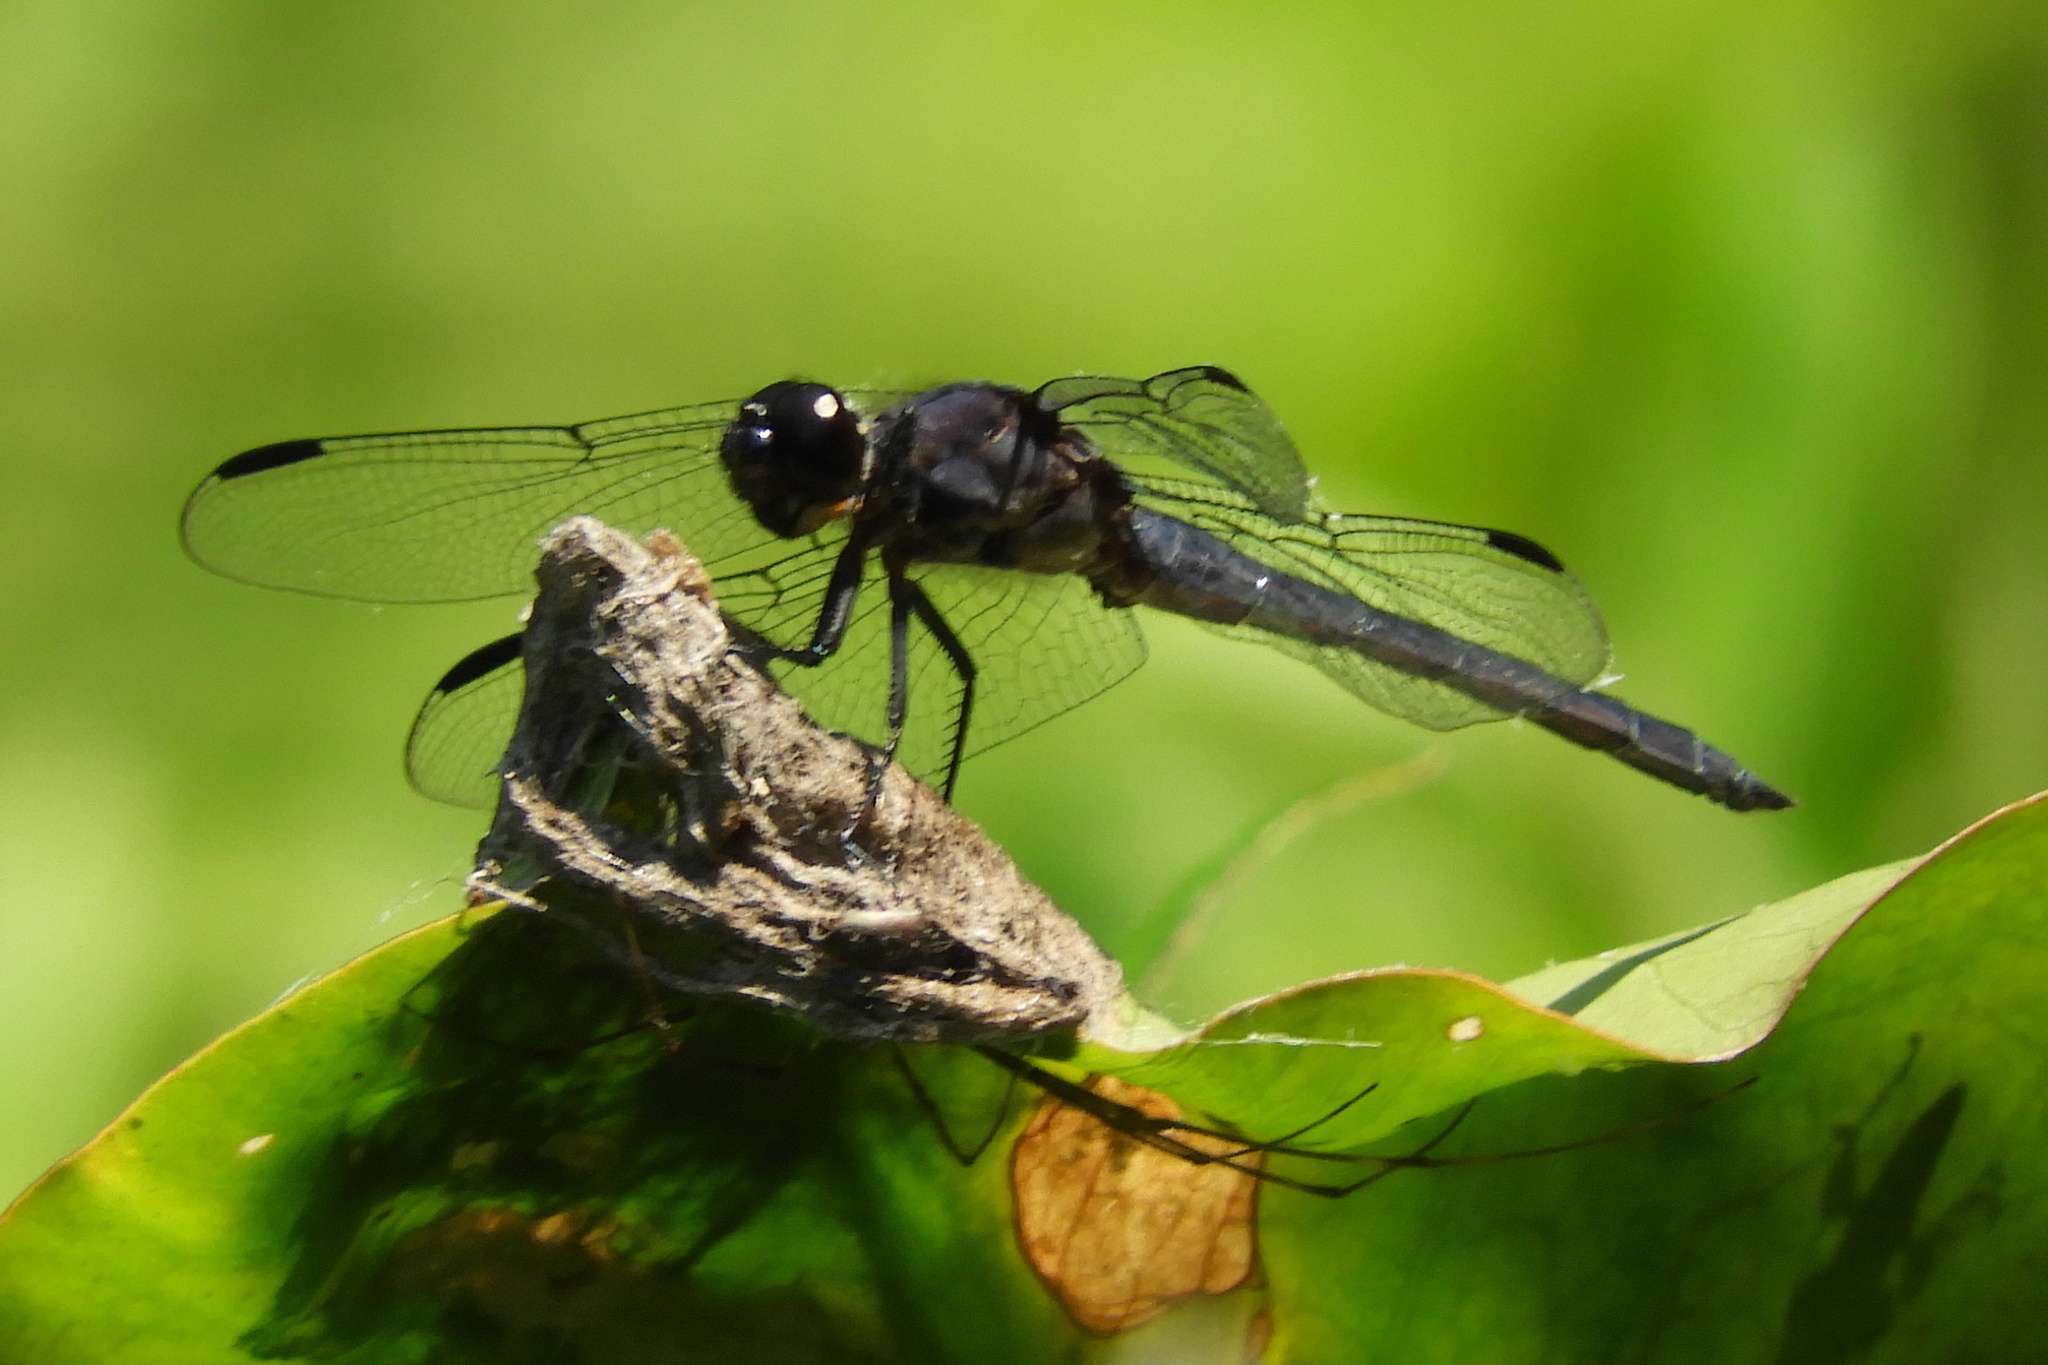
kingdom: Animalia
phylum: Arthropoda
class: Insecta
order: Odonata
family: Libellulidae
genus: Libellula
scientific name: Libellula incesta
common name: Slaty skimmer
